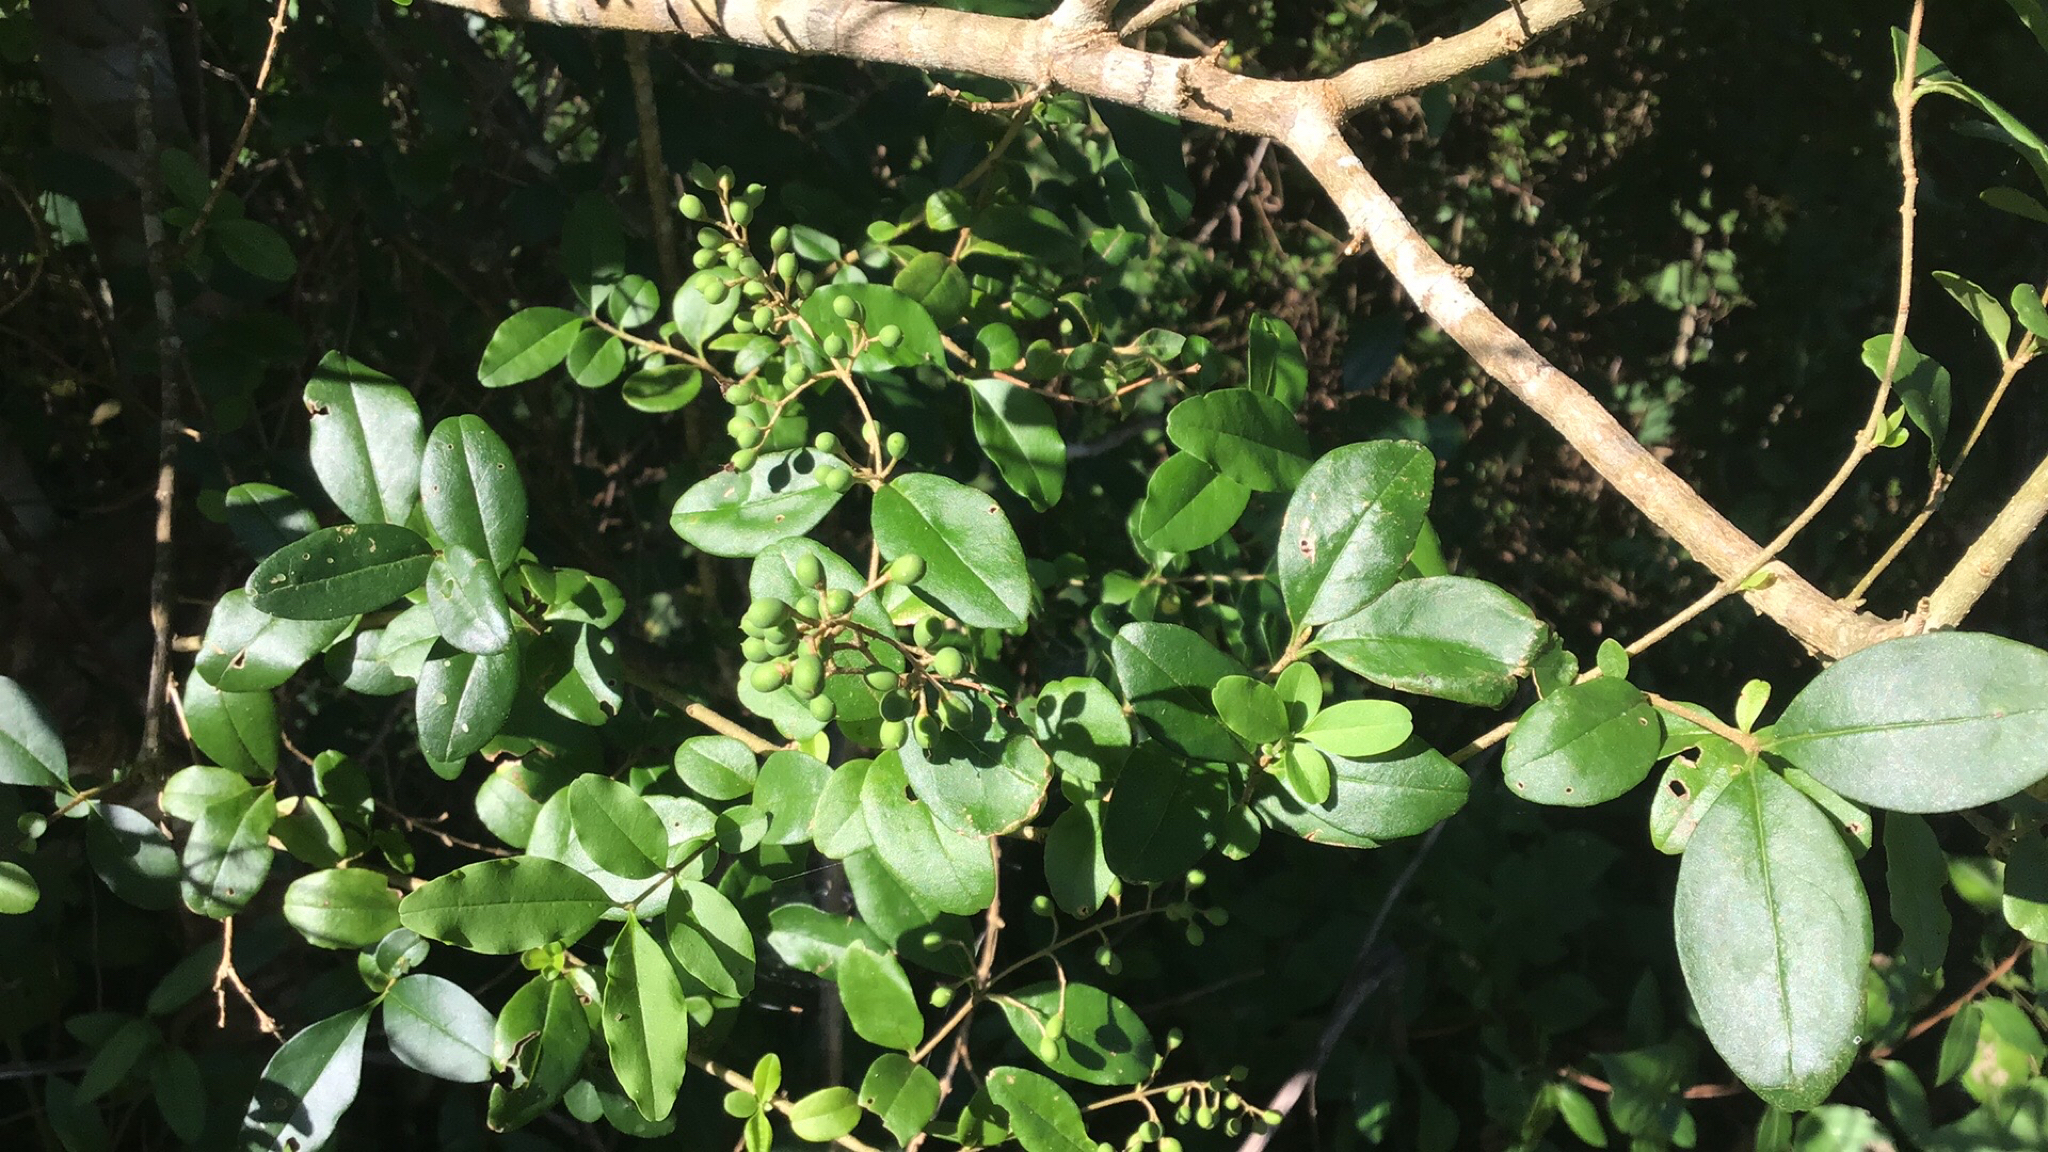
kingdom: Plantae
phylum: Tracheophyta
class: Magnoliopsida
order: Lamiales
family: Oleaceae
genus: Ligustrum
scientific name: Ligustrum sinense
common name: Chinese privet
